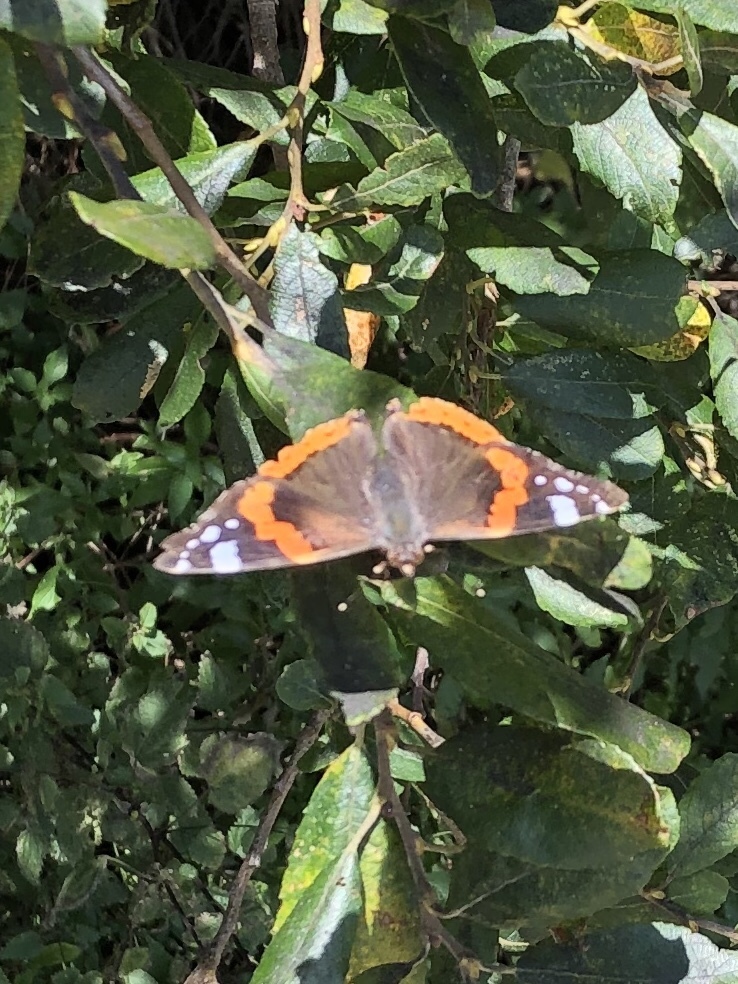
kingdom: Animalia
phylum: Arthropoda
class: Insecta
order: Lepidoptera
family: Nymphalidae
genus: Vanessa
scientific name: Vanessa atalanta
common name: Red admiral
